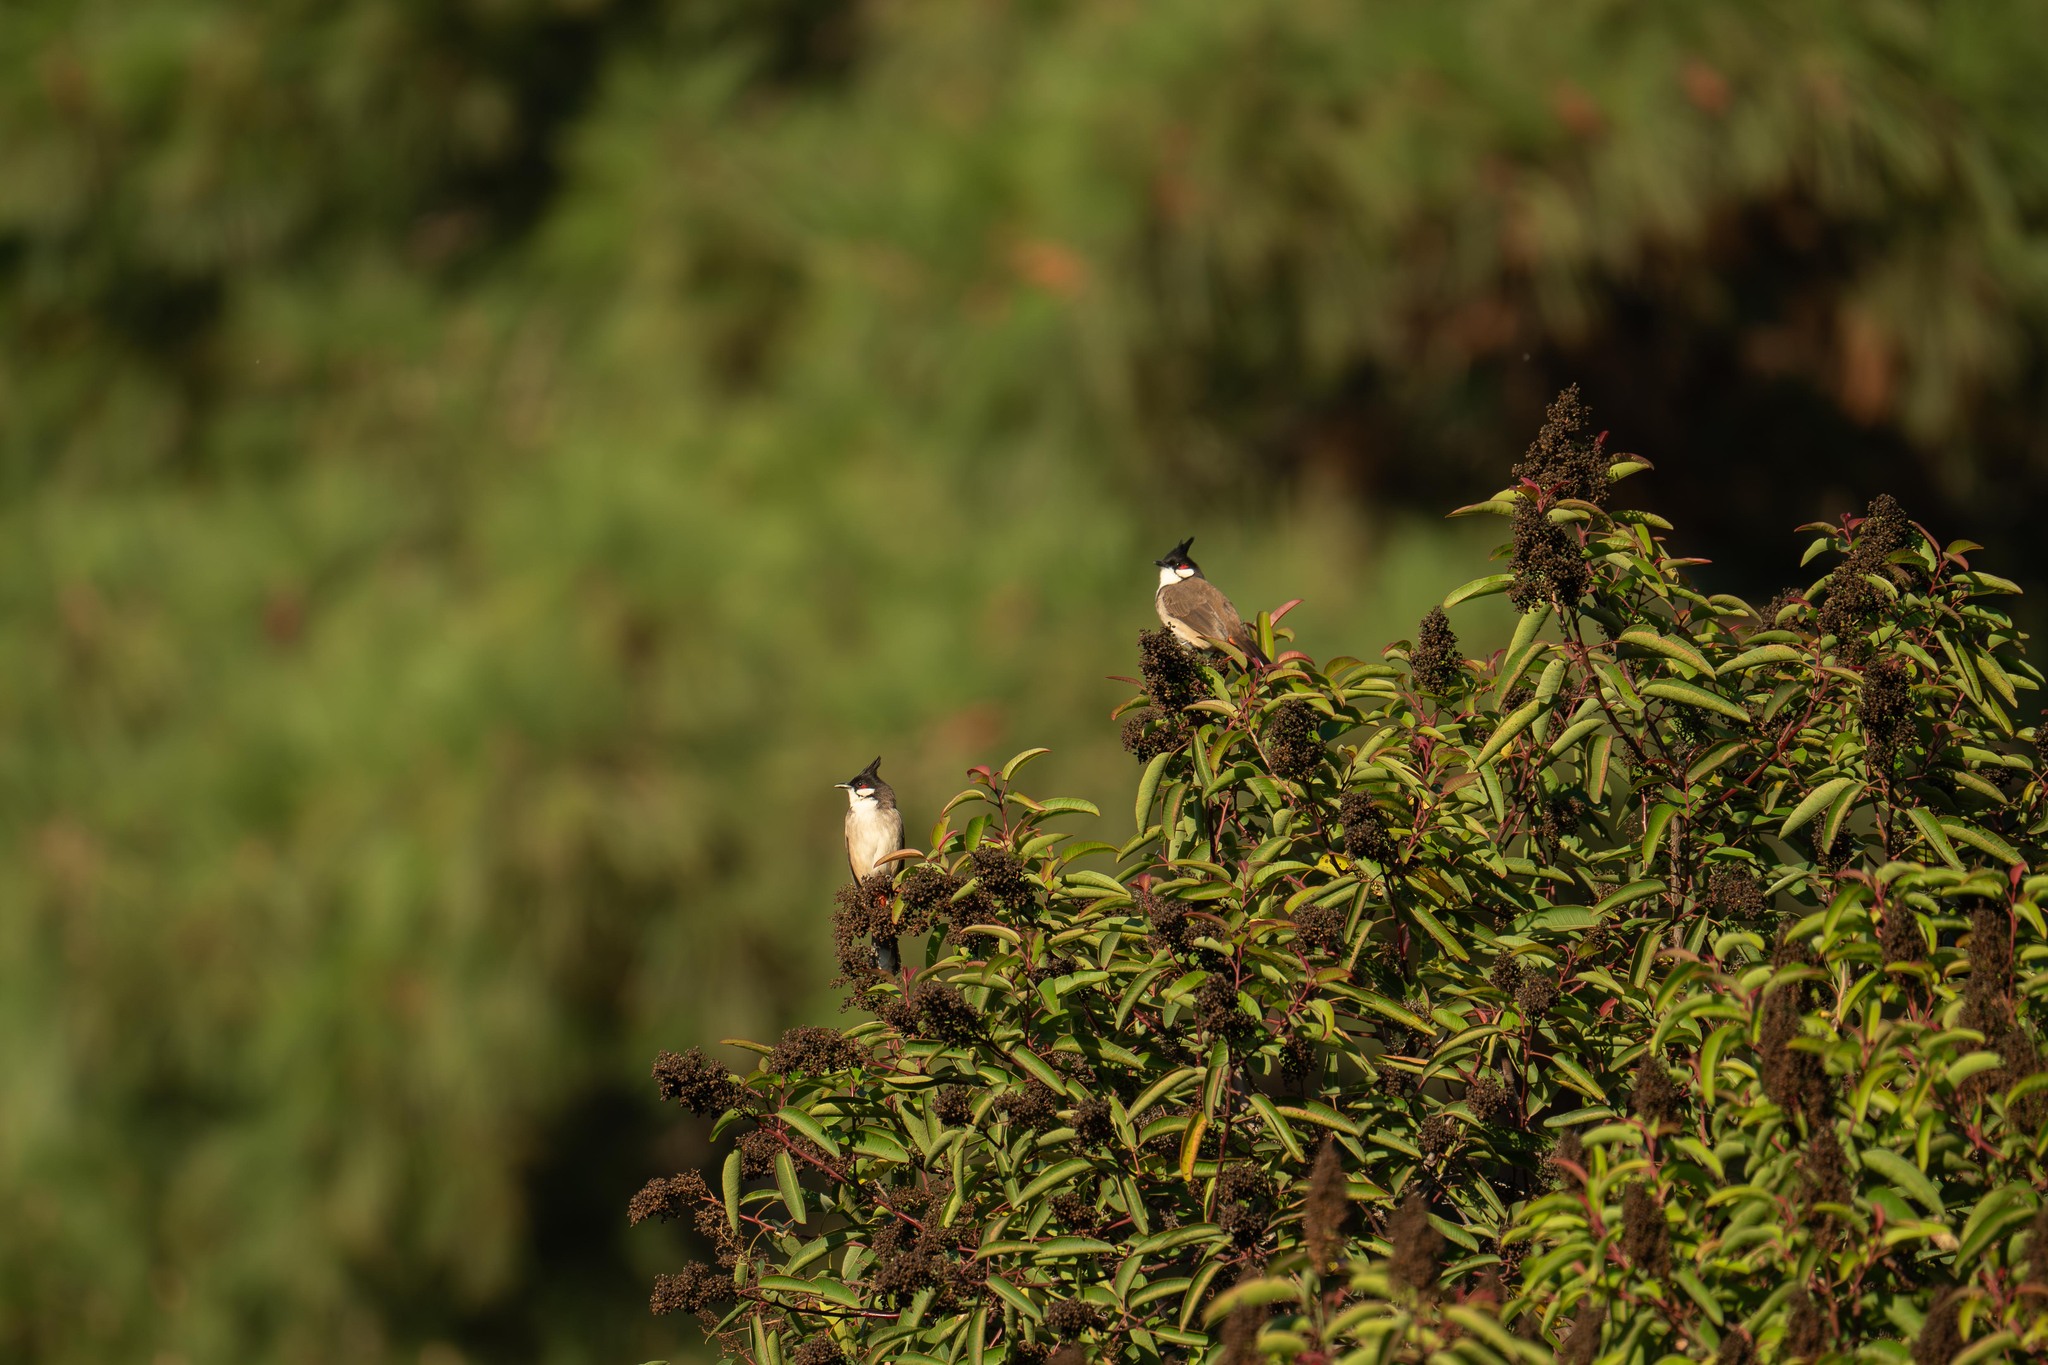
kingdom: Animalia
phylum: Chordata
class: Aves
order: Passeriformes
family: Pycnonotidae
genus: Pycnonotus
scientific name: Pycnonotus jocosus
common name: Red-whiskered bulbul
